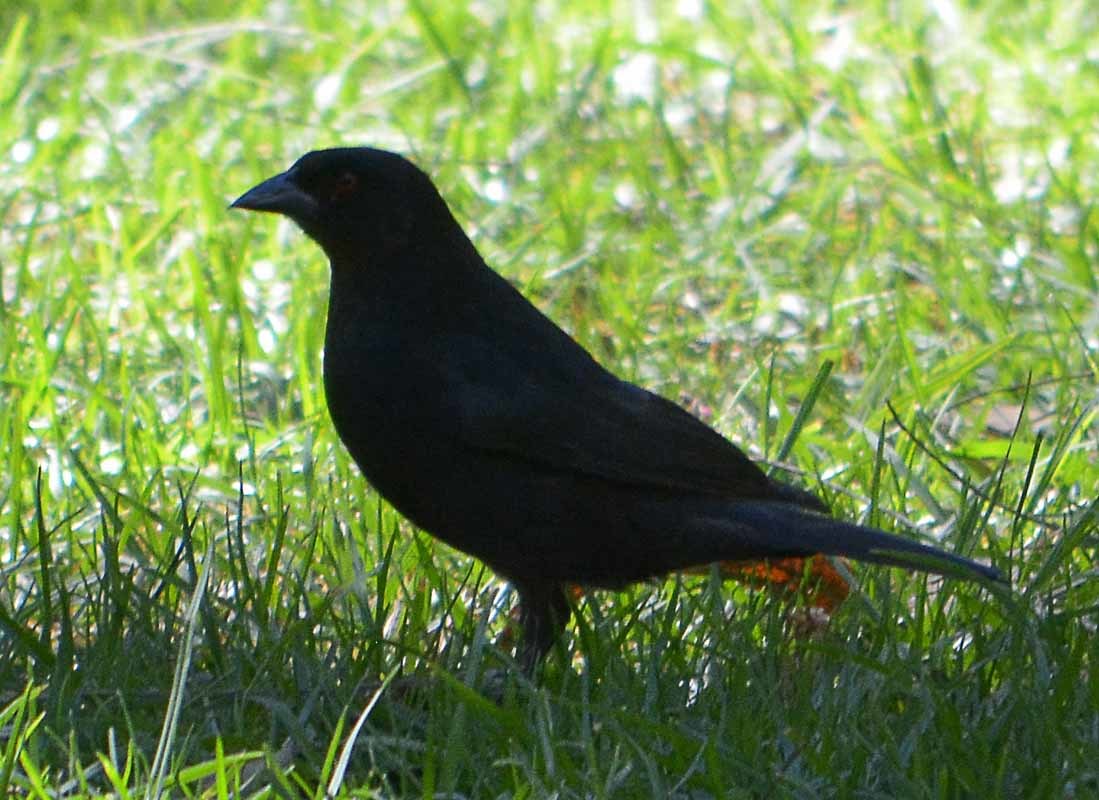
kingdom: Animalia
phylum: Chordata
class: Aves
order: Passeriformes
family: Icteridae
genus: Molothrus
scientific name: Molothrus aeneus
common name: Bronzed cowbird
